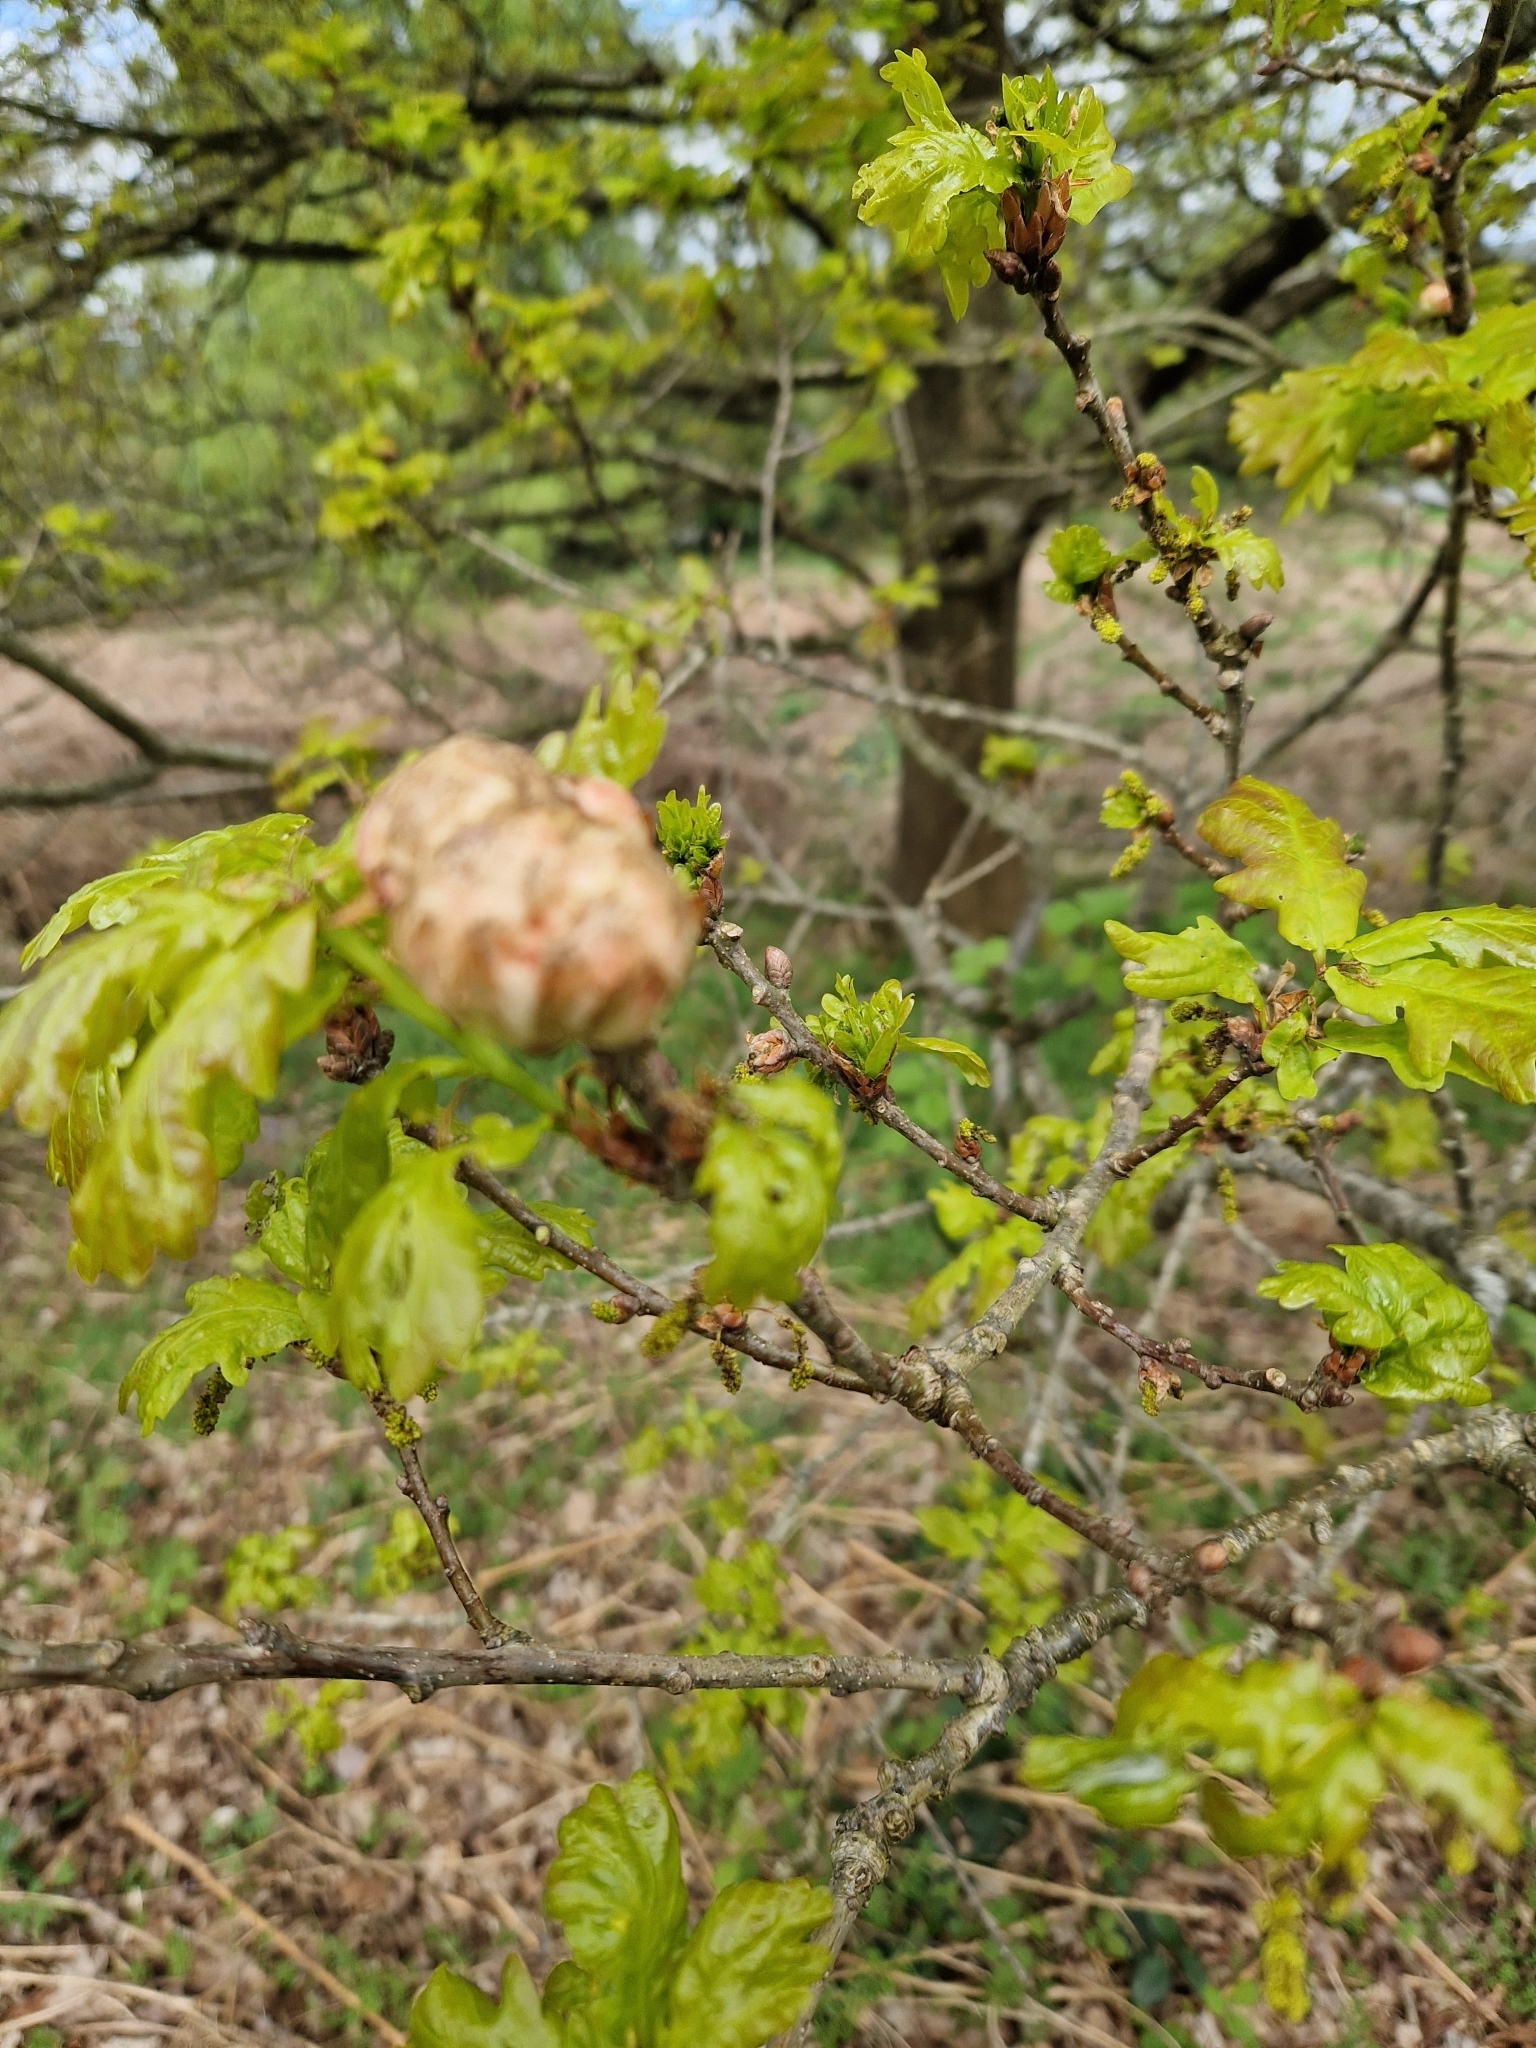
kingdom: Animalia
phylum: Arthropoda
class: Insecta
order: Hymenoptera
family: Cynipidae
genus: Biorhiza
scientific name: Biorhiza pallida
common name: Oak apple
